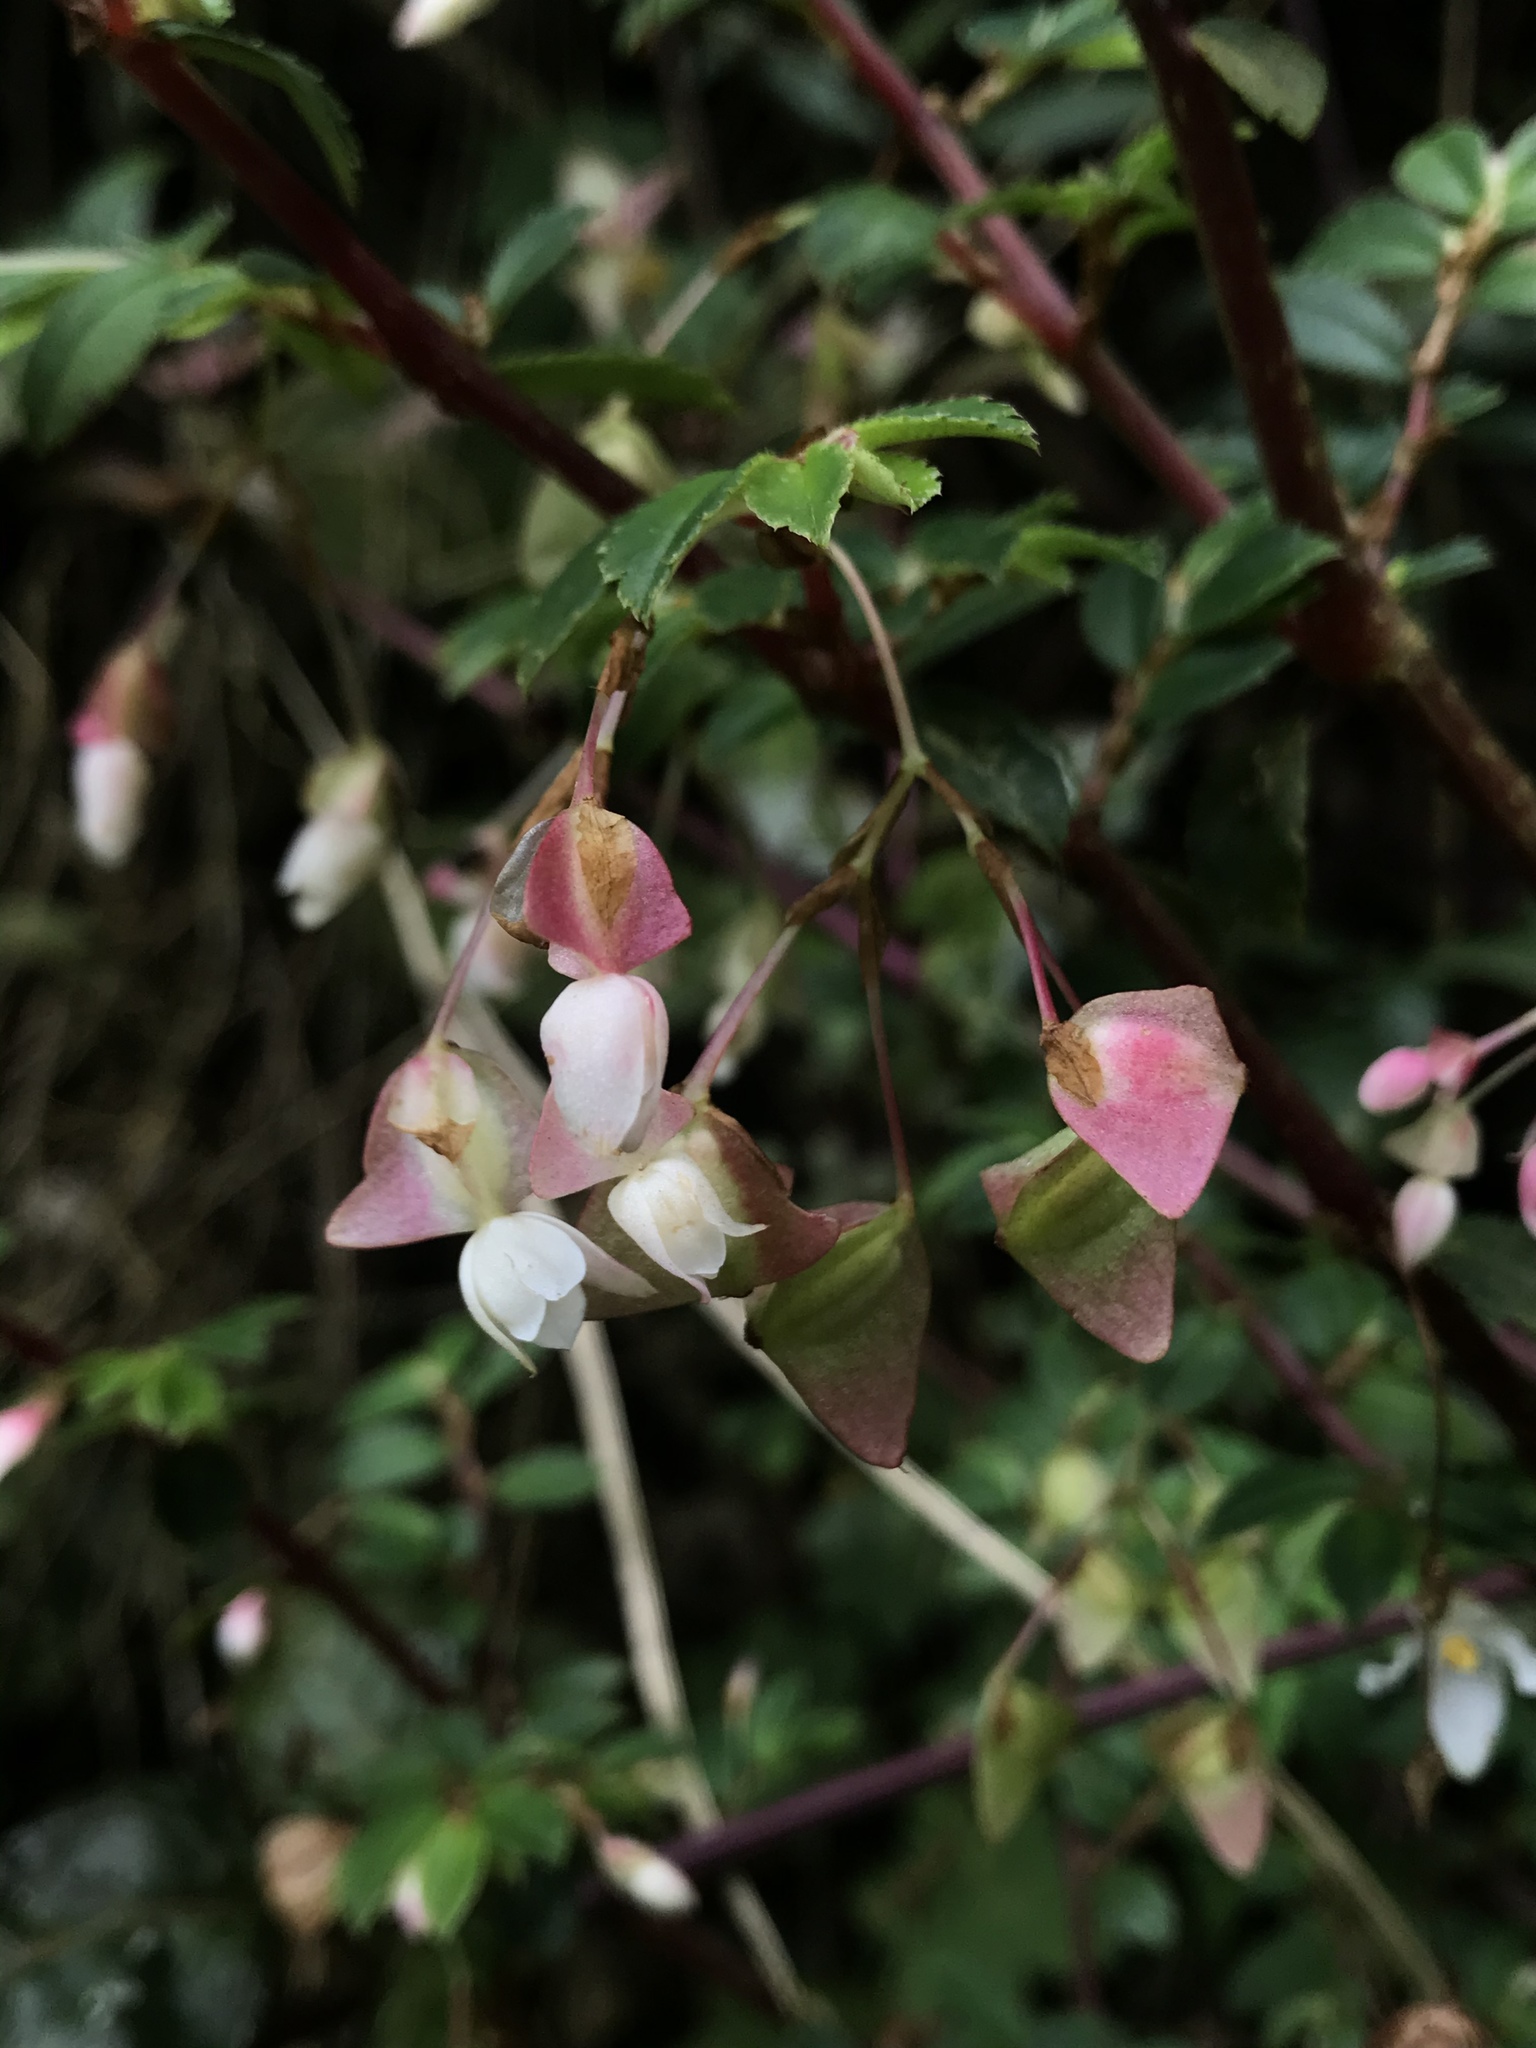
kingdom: Plantae
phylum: Tracheophyta
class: Magnoliopsida
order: Cucurbitales
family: Begoniaceae
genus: Begonia
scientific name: Begonia foliosa
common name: Fern begonia
